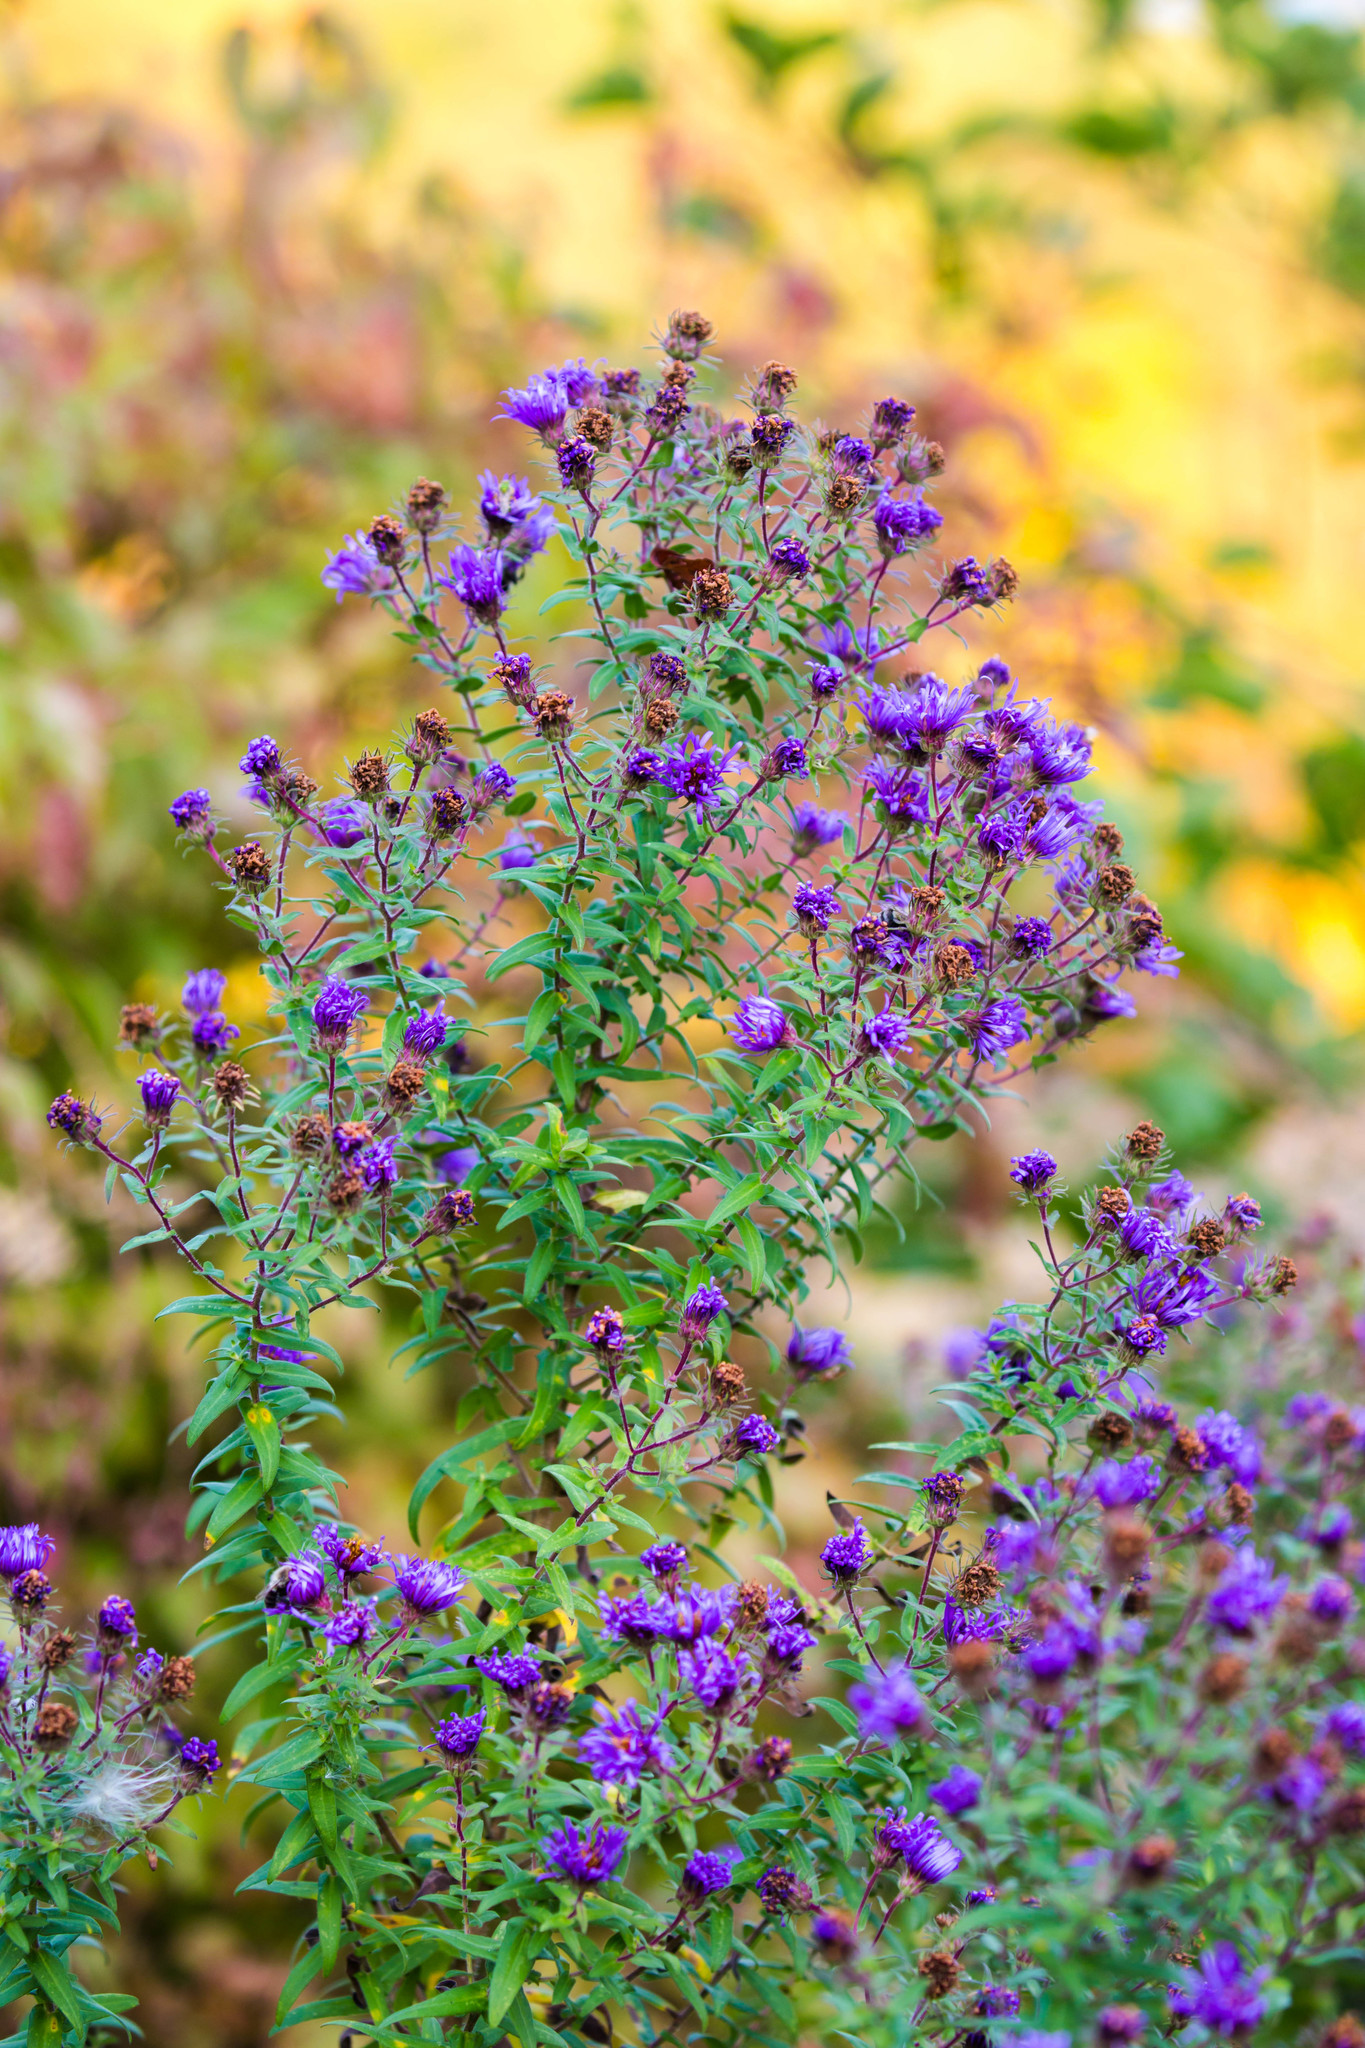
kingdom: Plantae
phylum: Tracheophyta
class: Magnoliopsida
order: Asterales
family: Asteraceae
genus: Symphyotrichum
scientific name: Symphyotrichum novae-angliae
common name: Michaelmas daisy
